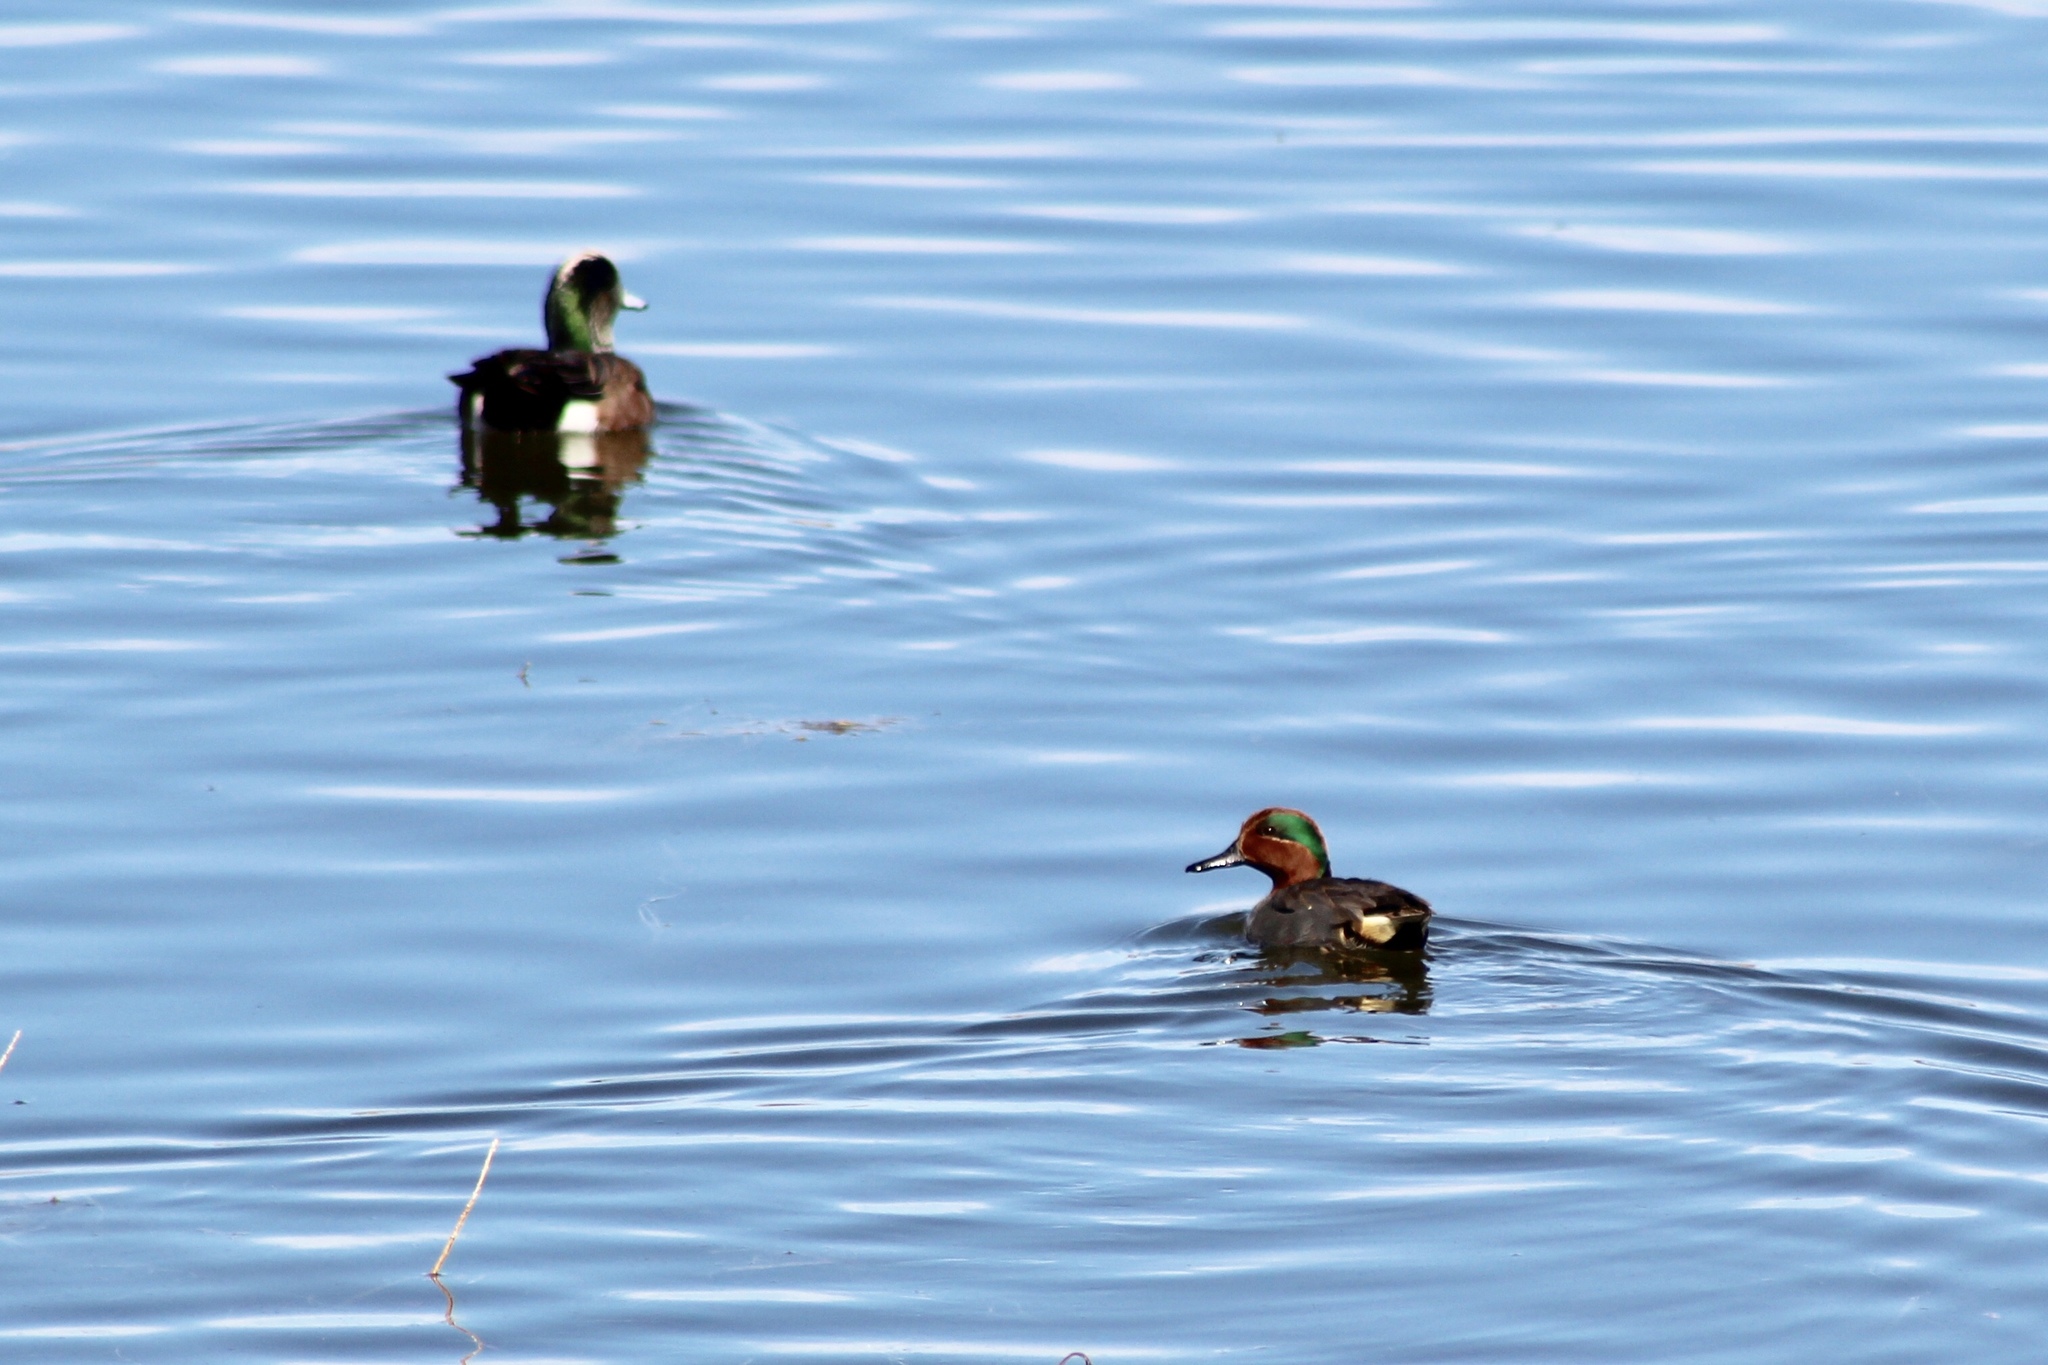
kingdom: Animalia
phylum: Chordata
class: Aves
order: Anseriformes
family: Anatidae
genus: Anas
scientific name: Anas crecca
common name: Eurasian teal
